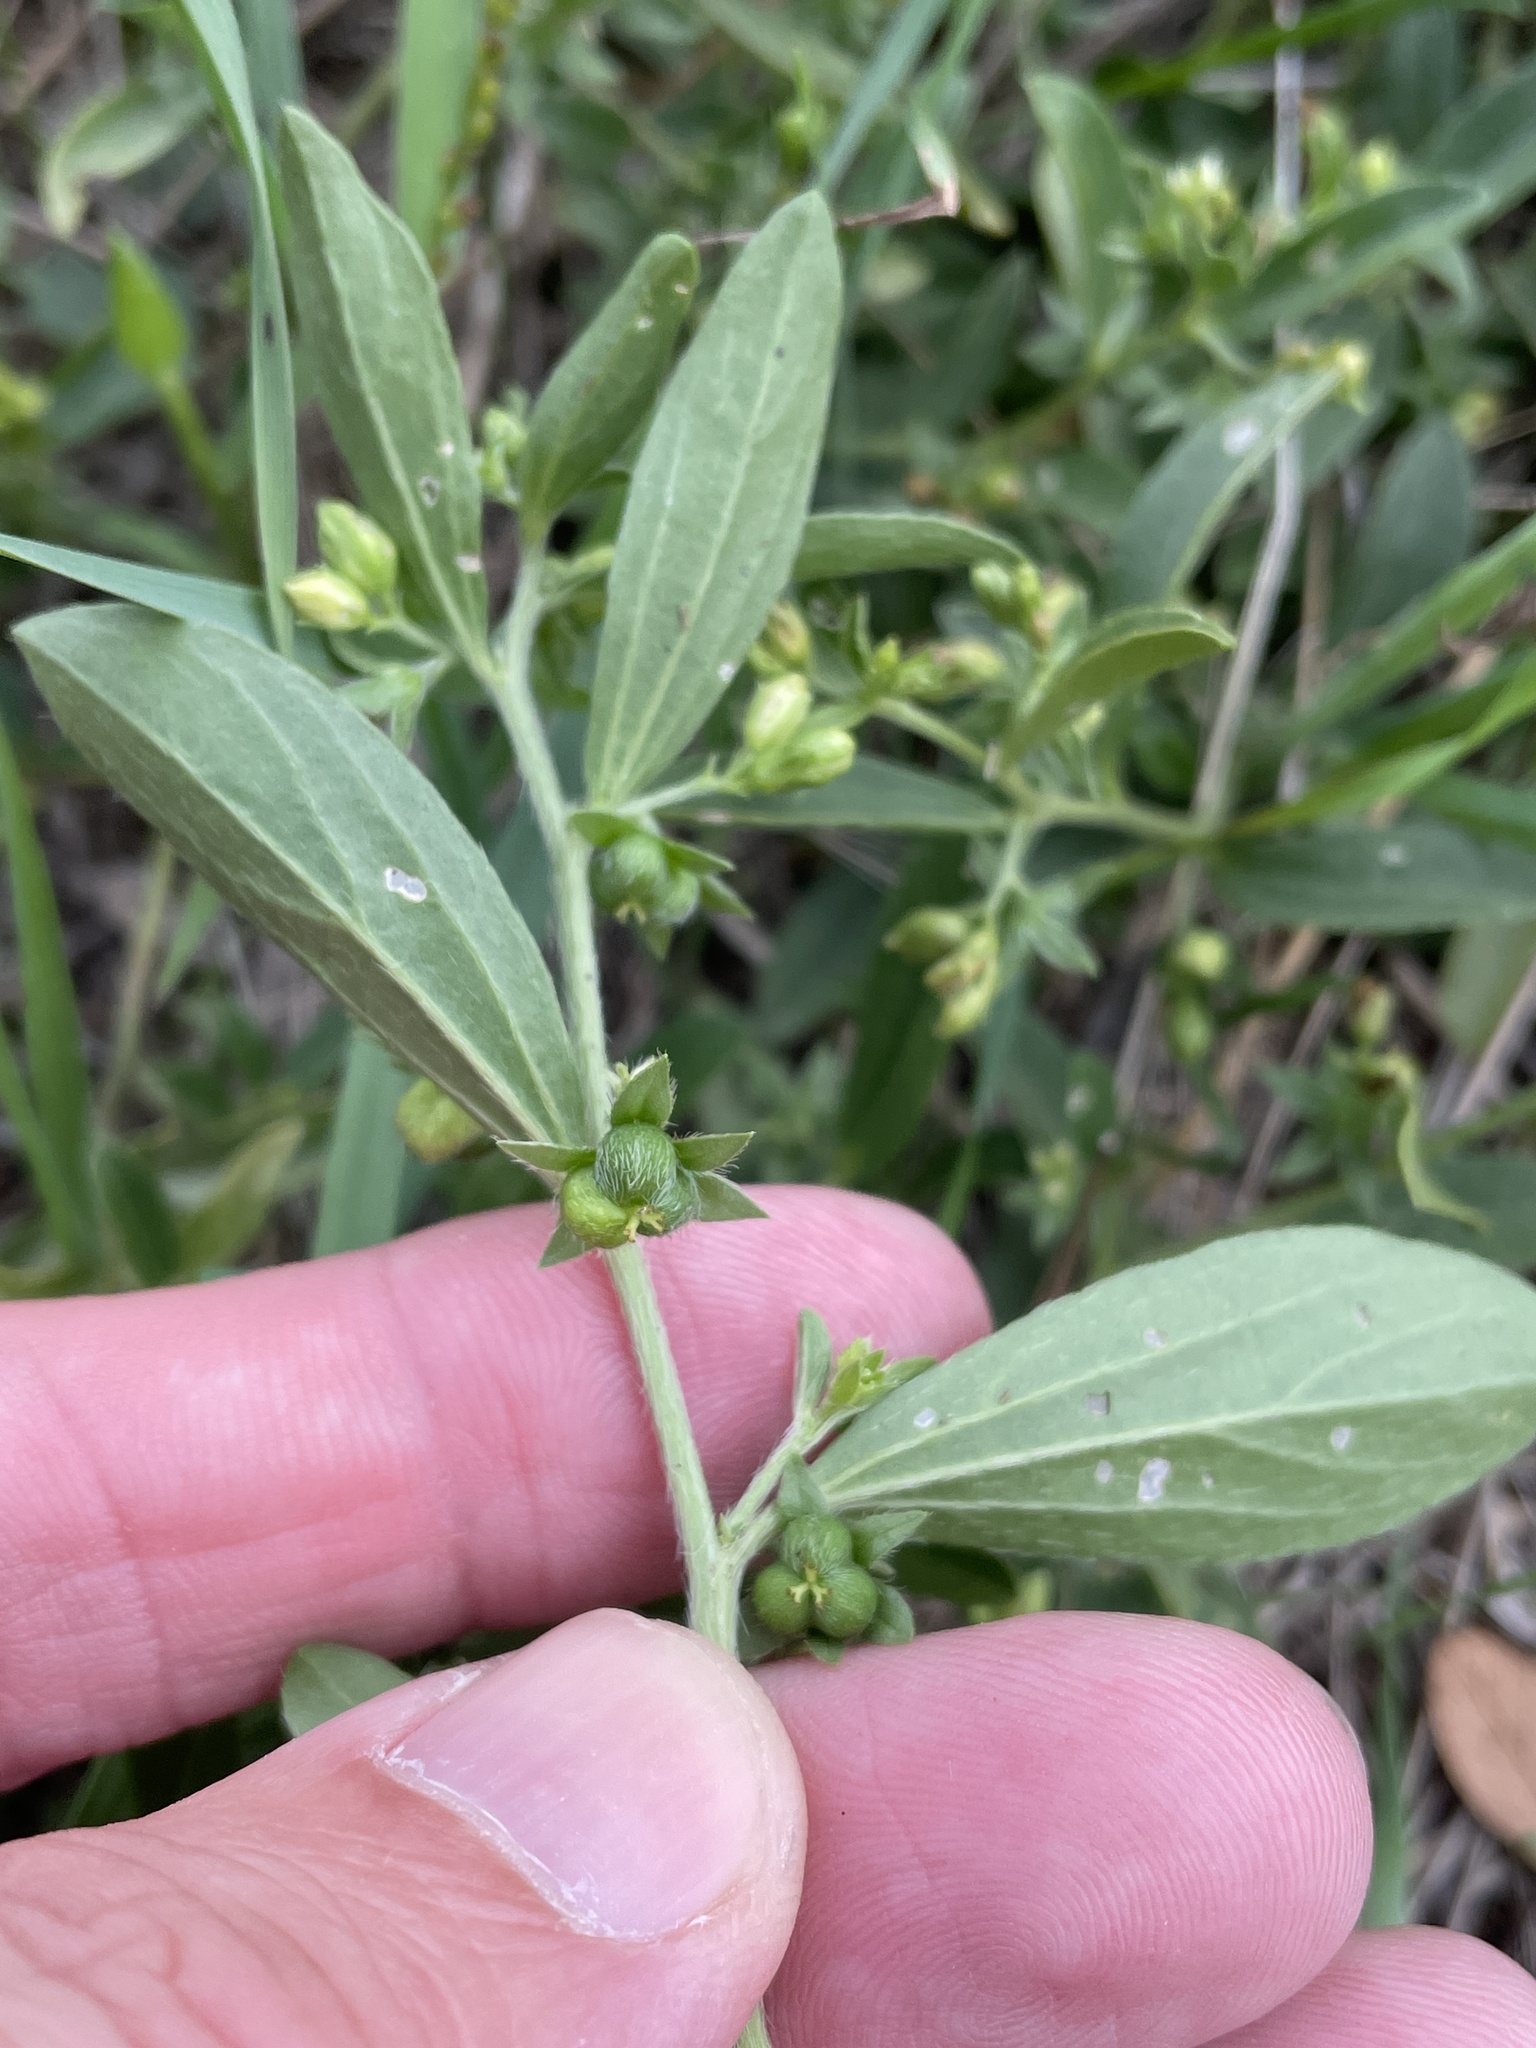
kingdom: Plantae
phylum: Tracheophyta
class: Magnoliopsida
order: Malpighiales
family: Euphorbiaceae
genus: Ditaxis
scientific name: Ditaxis humilis
